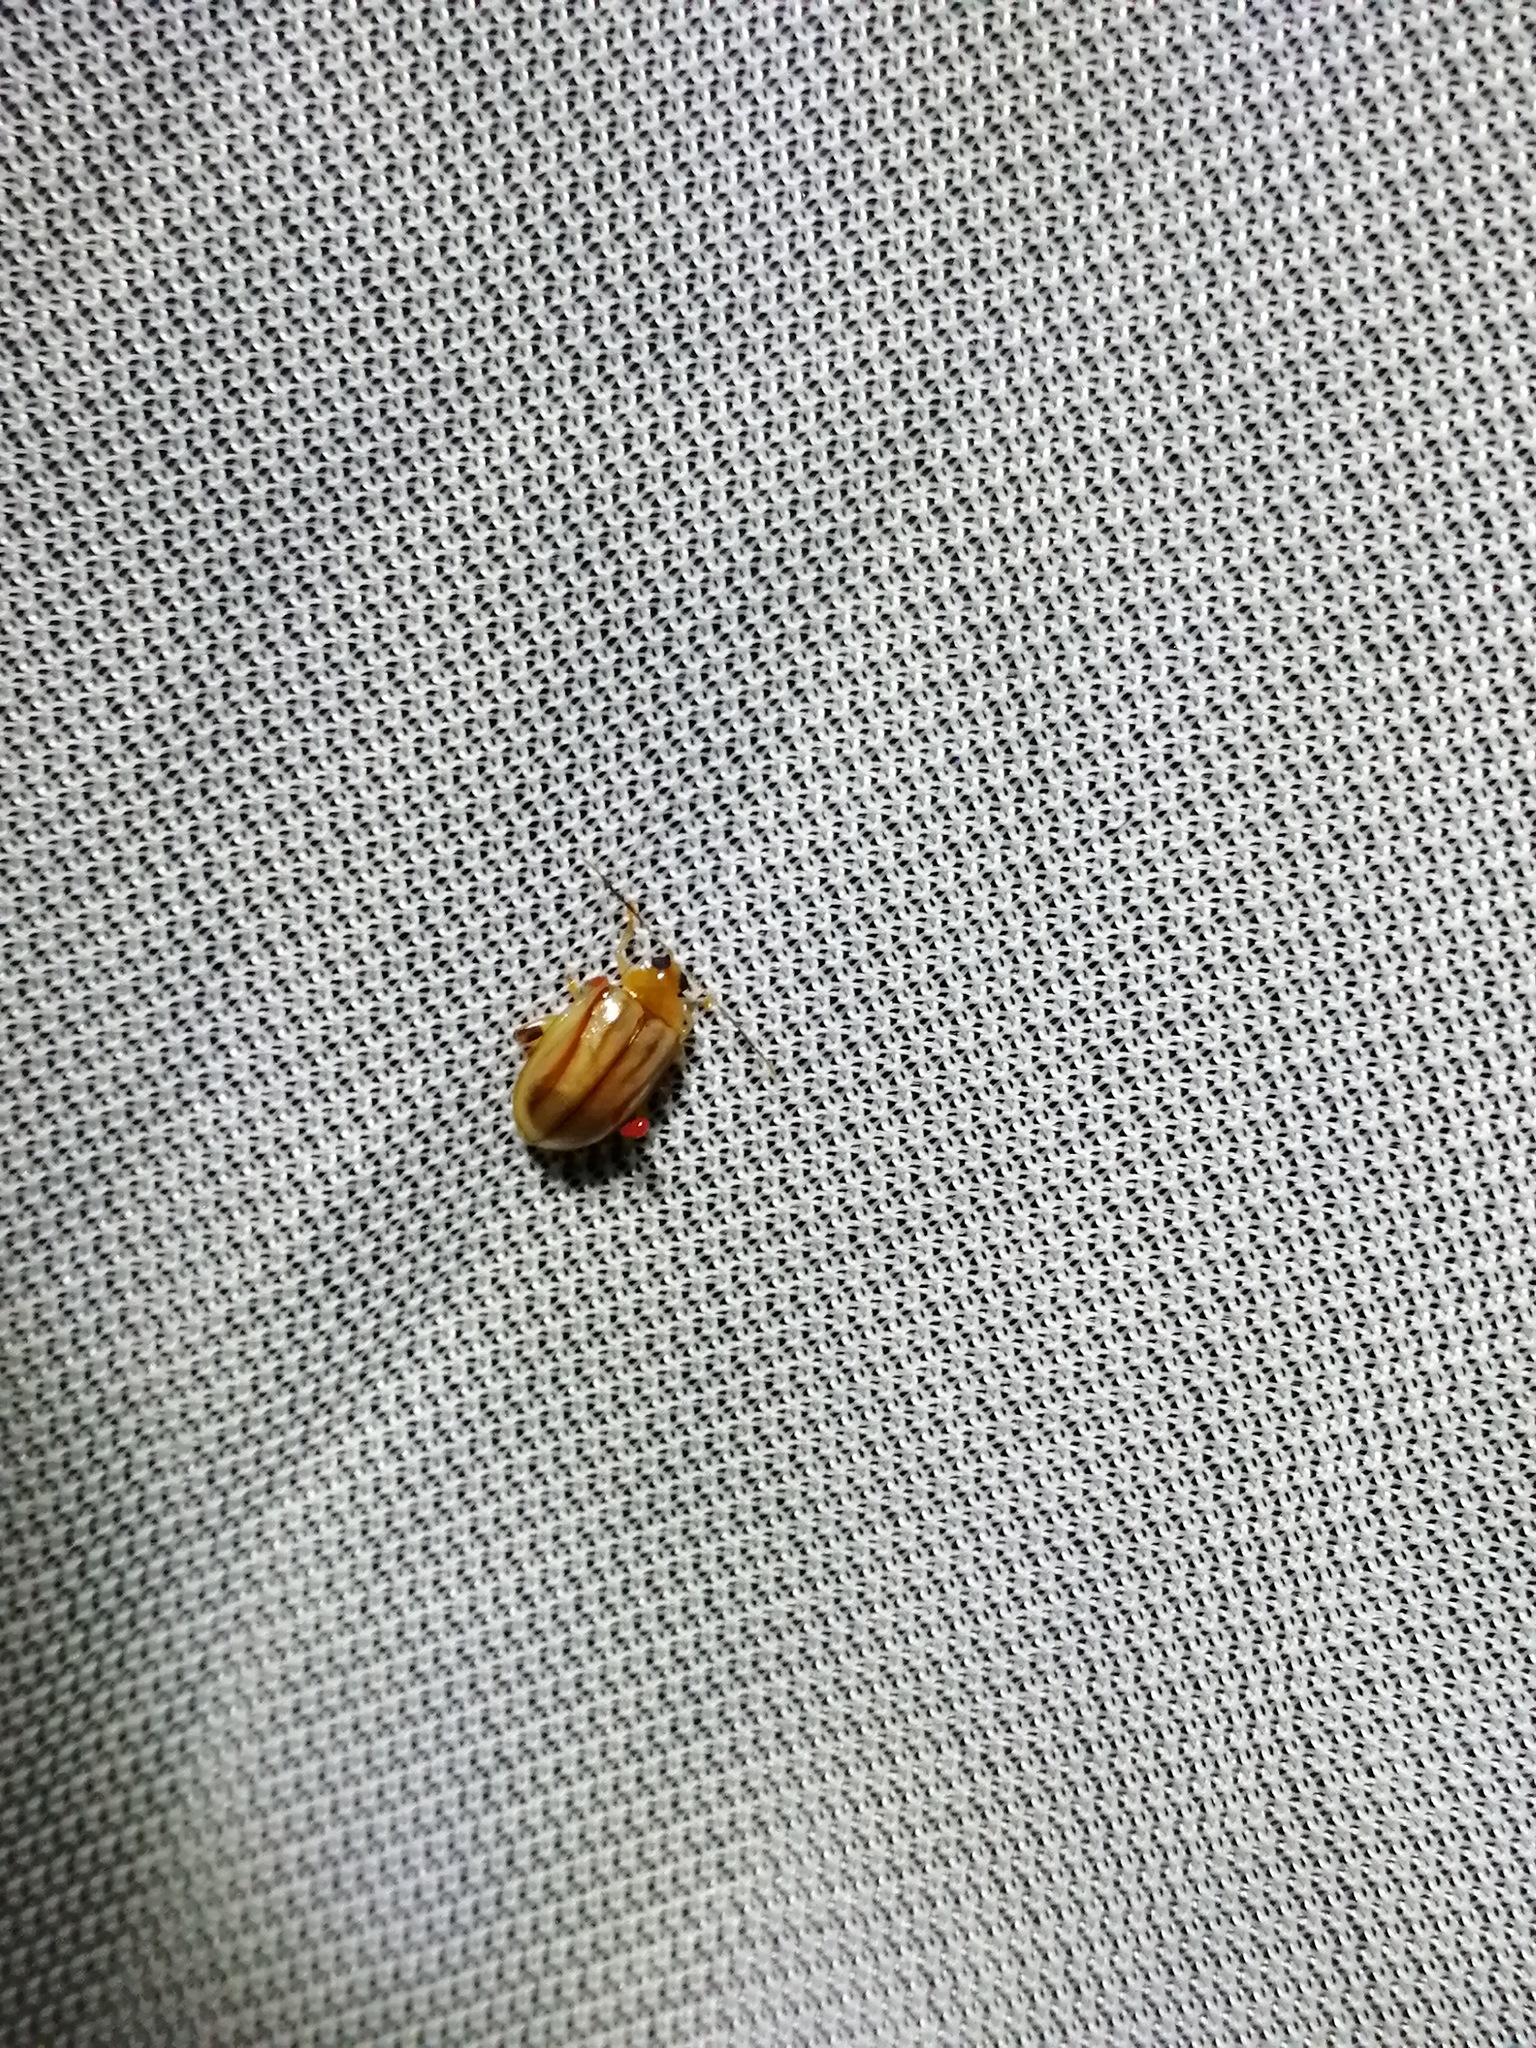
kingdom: Animalia
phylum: Arthropoda
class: Insecta
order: Coleoptera
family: Chrysomelidae
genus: Walterianella
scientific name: Walterianella
